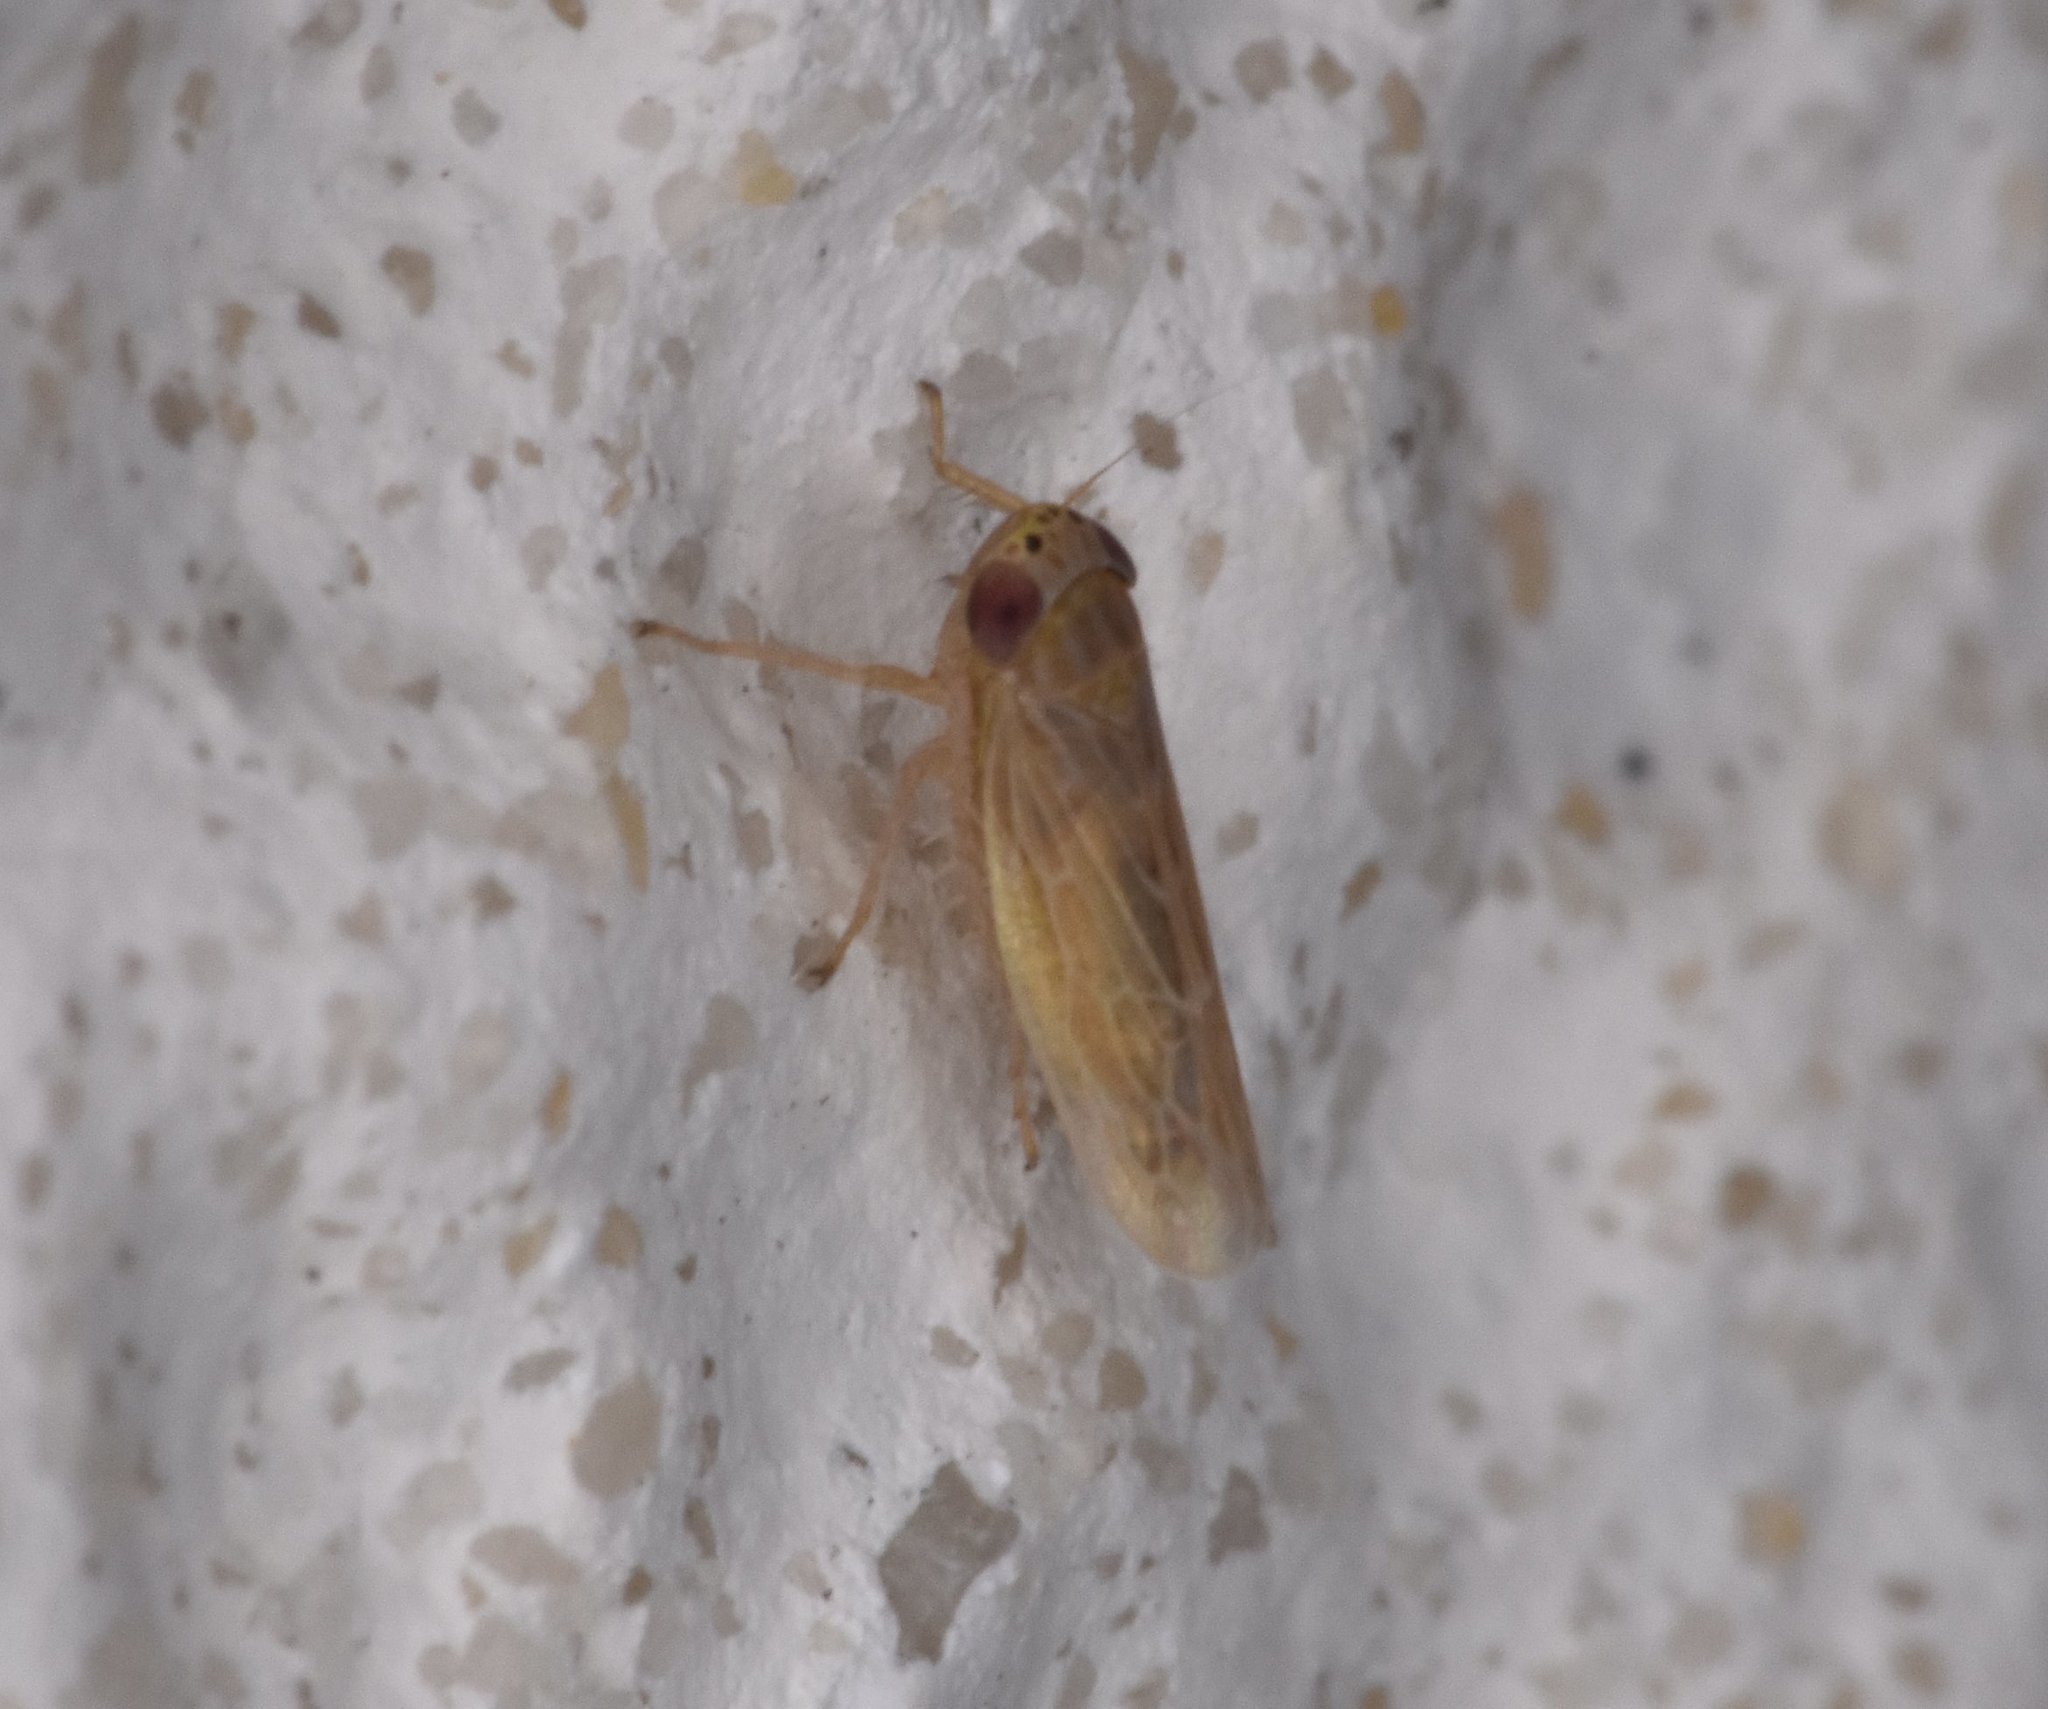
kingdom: Animalia
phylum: Arthropoda
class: Insecta
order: Hemiptera
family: Cicadellidae
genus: Graminella
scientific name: Graminella sonora
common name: Lesser lawn leafhopper
